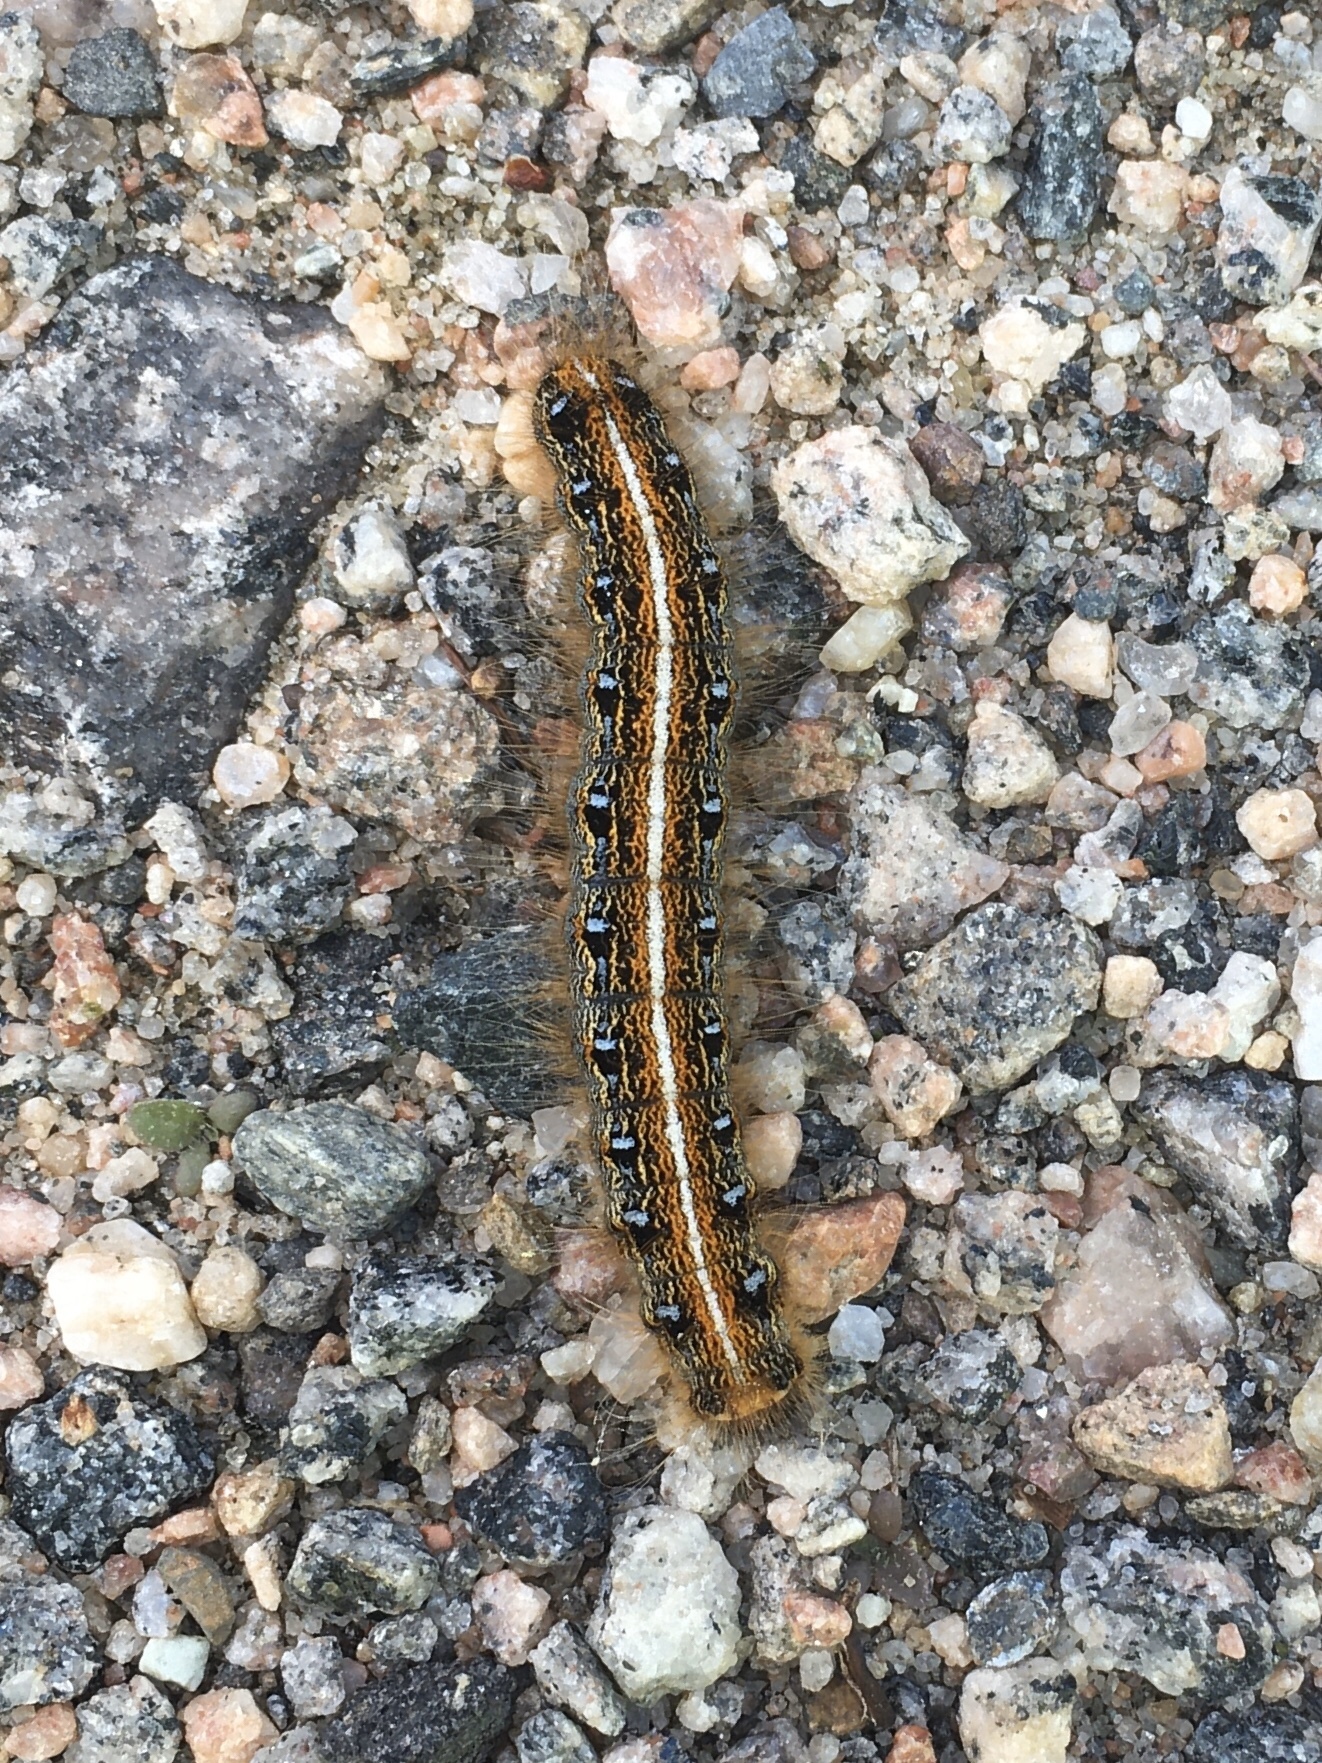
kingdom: Animalia
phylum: Arthropoda
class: Insecta
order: Lepidoptera
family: Lasiocampidae
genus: Malacosoma
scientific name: Malacosoma americana
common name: Eastern tent caterpillar moth
